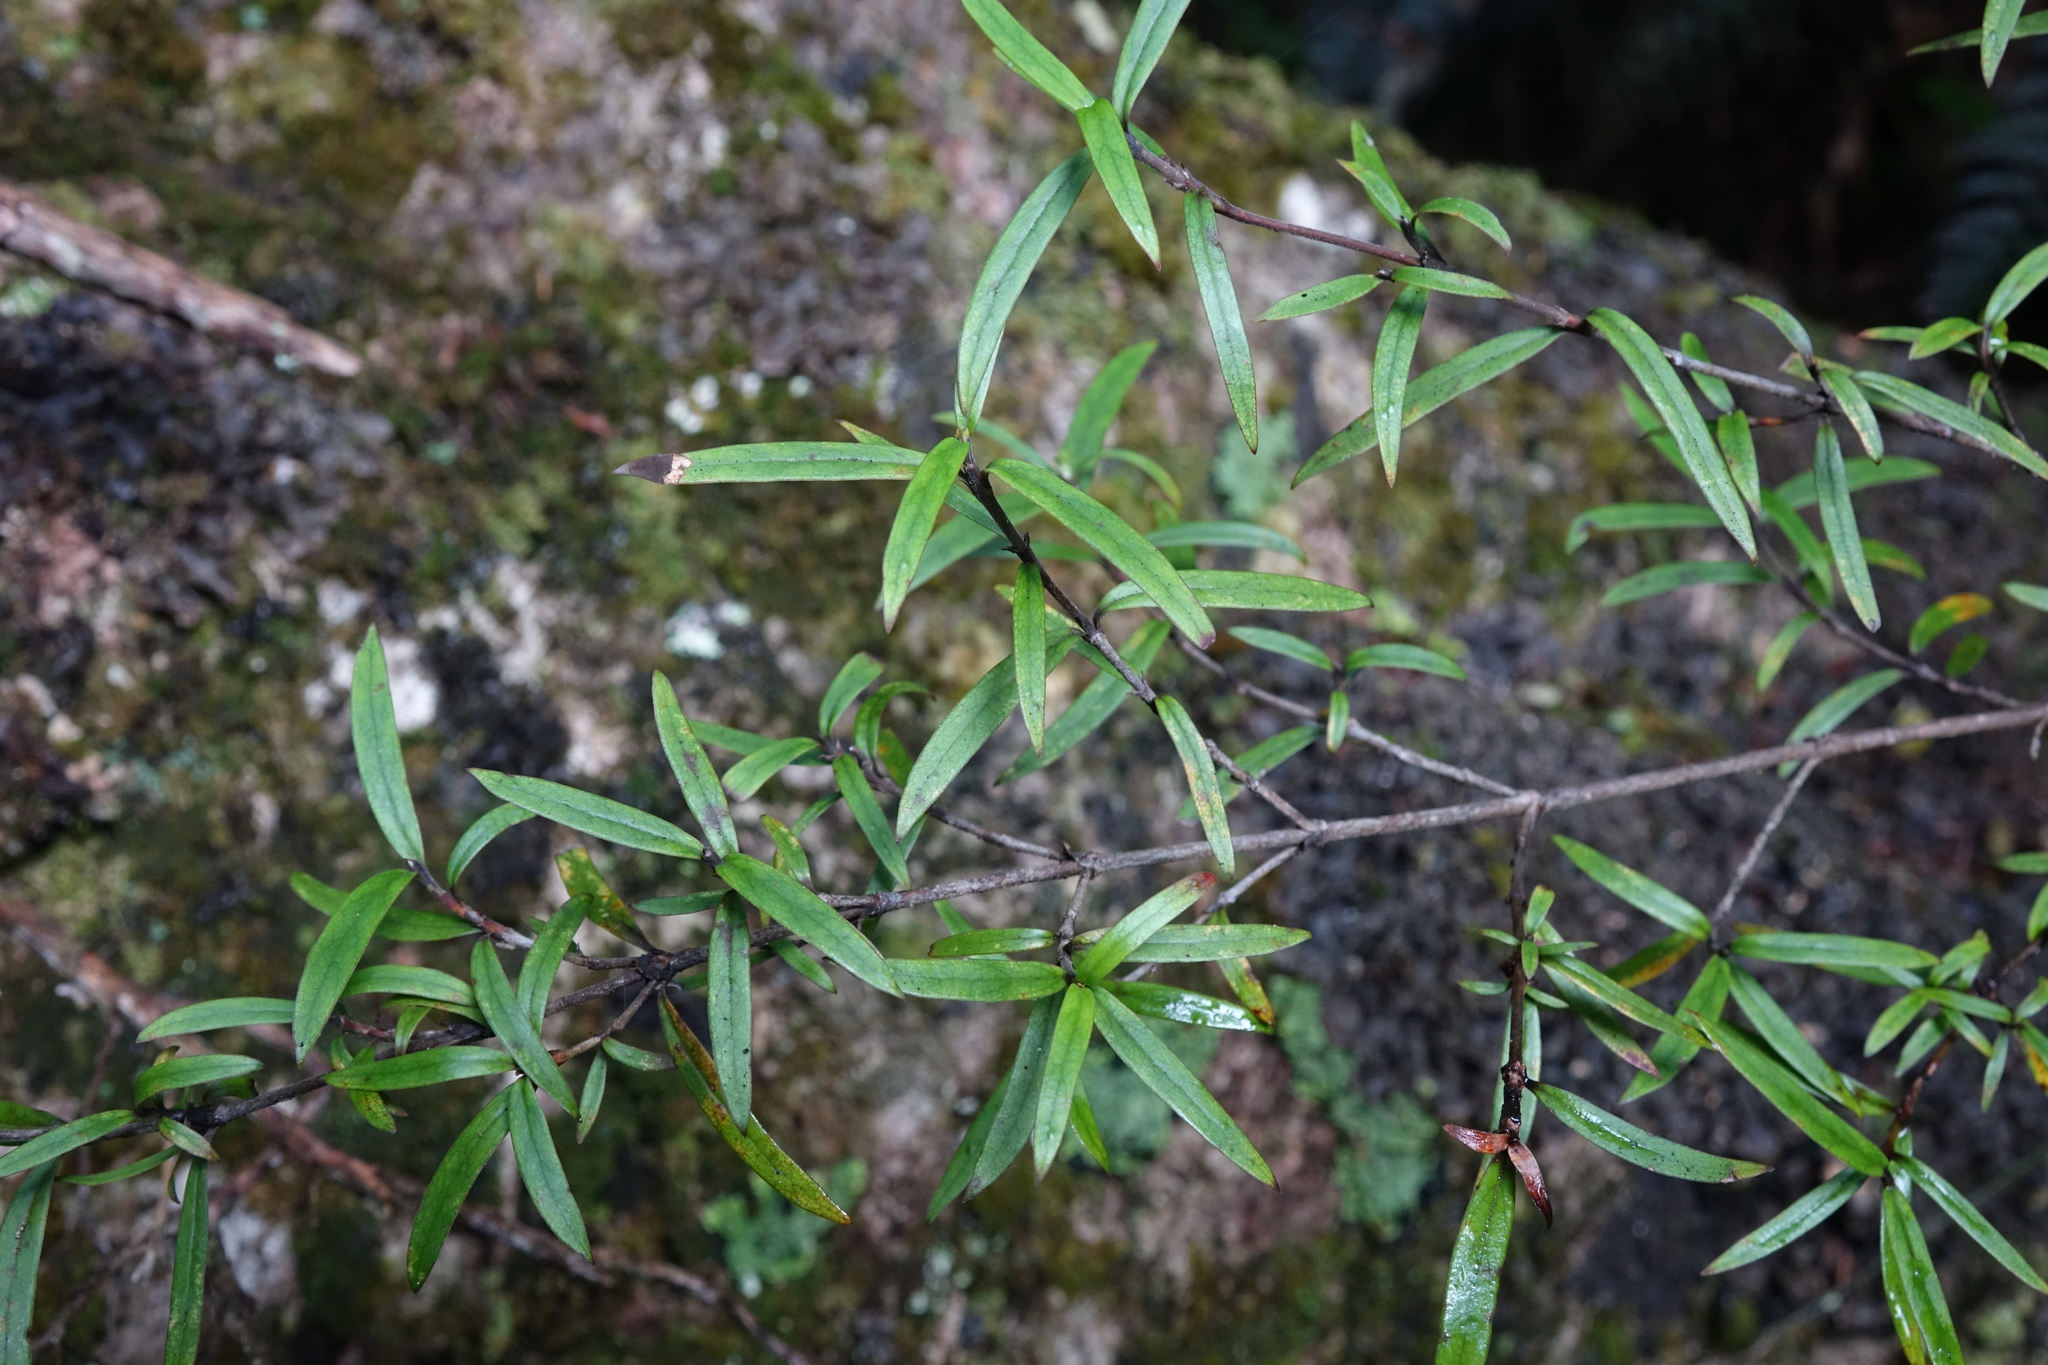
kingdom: Plantae
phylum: Tracheophyta
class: Magnoliopsida
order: Gentianales
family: Rubiaceae
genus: Coprosma
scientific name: Coprosma linariifolia
